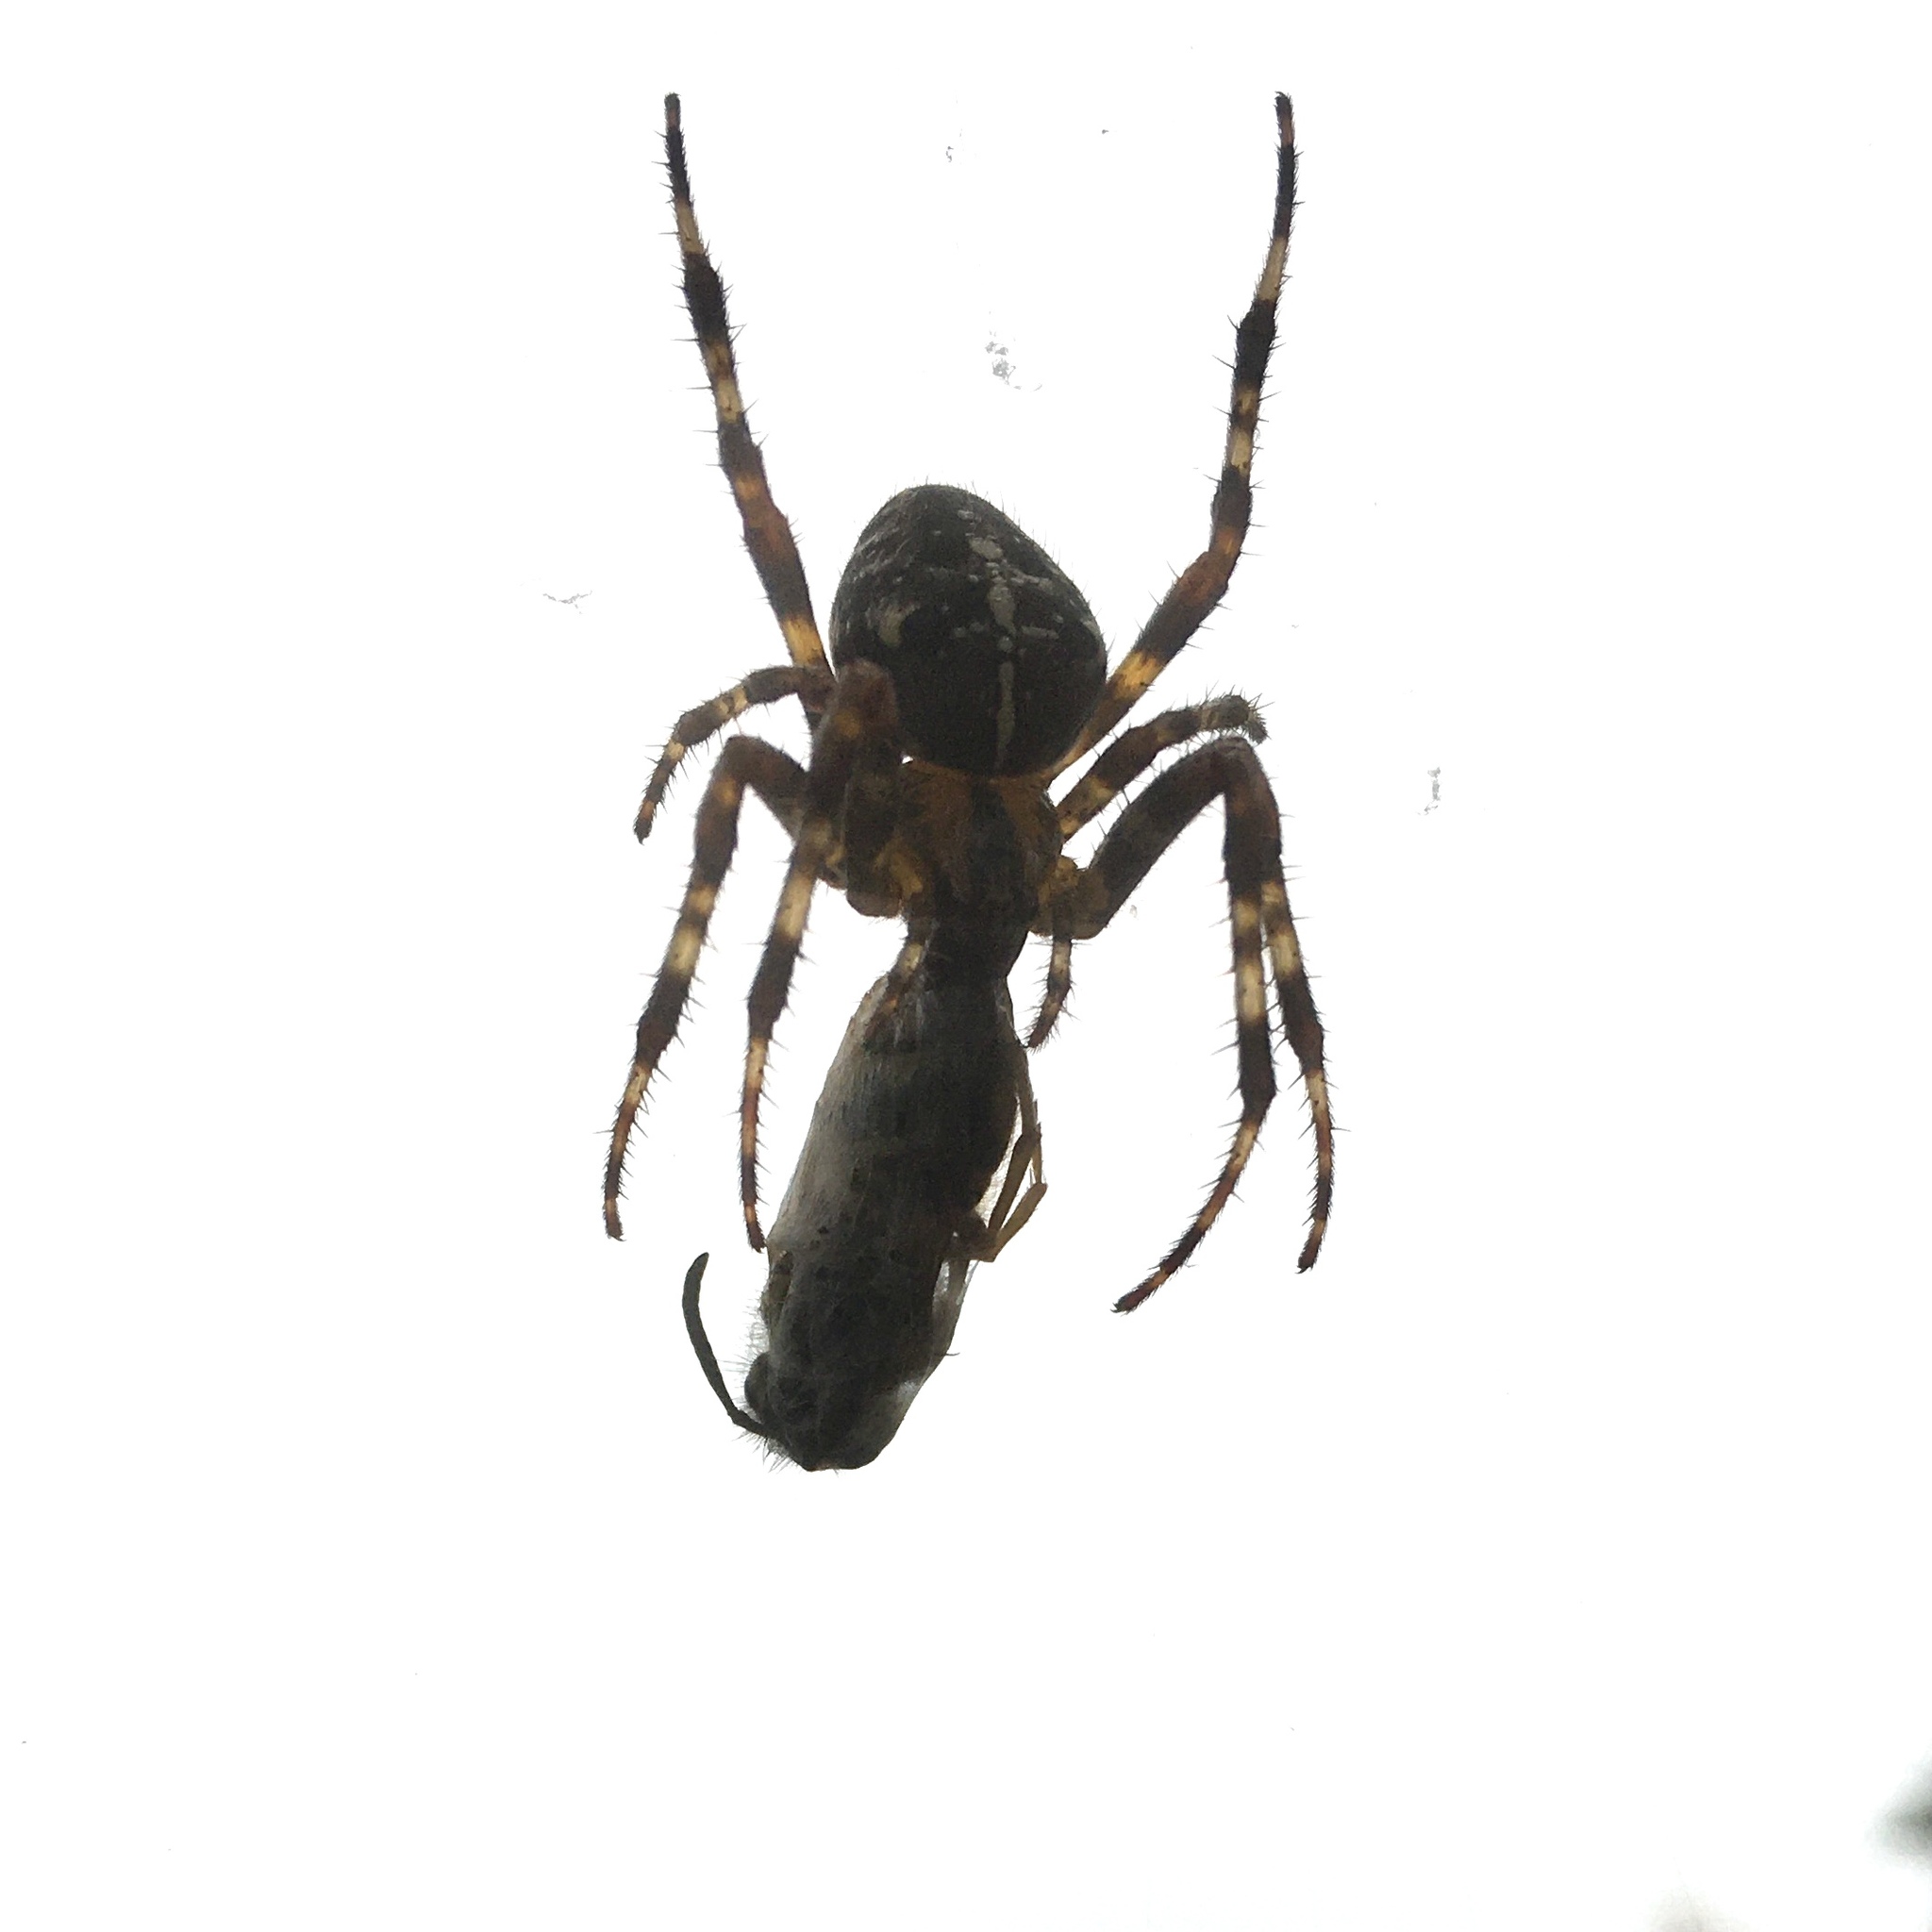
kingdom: Animalia
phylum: Arthropoda
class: Arachnida
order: Araneae
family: Araneidae
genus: Araneus
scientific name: Araneus diadematus
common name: Cross orbweaver
